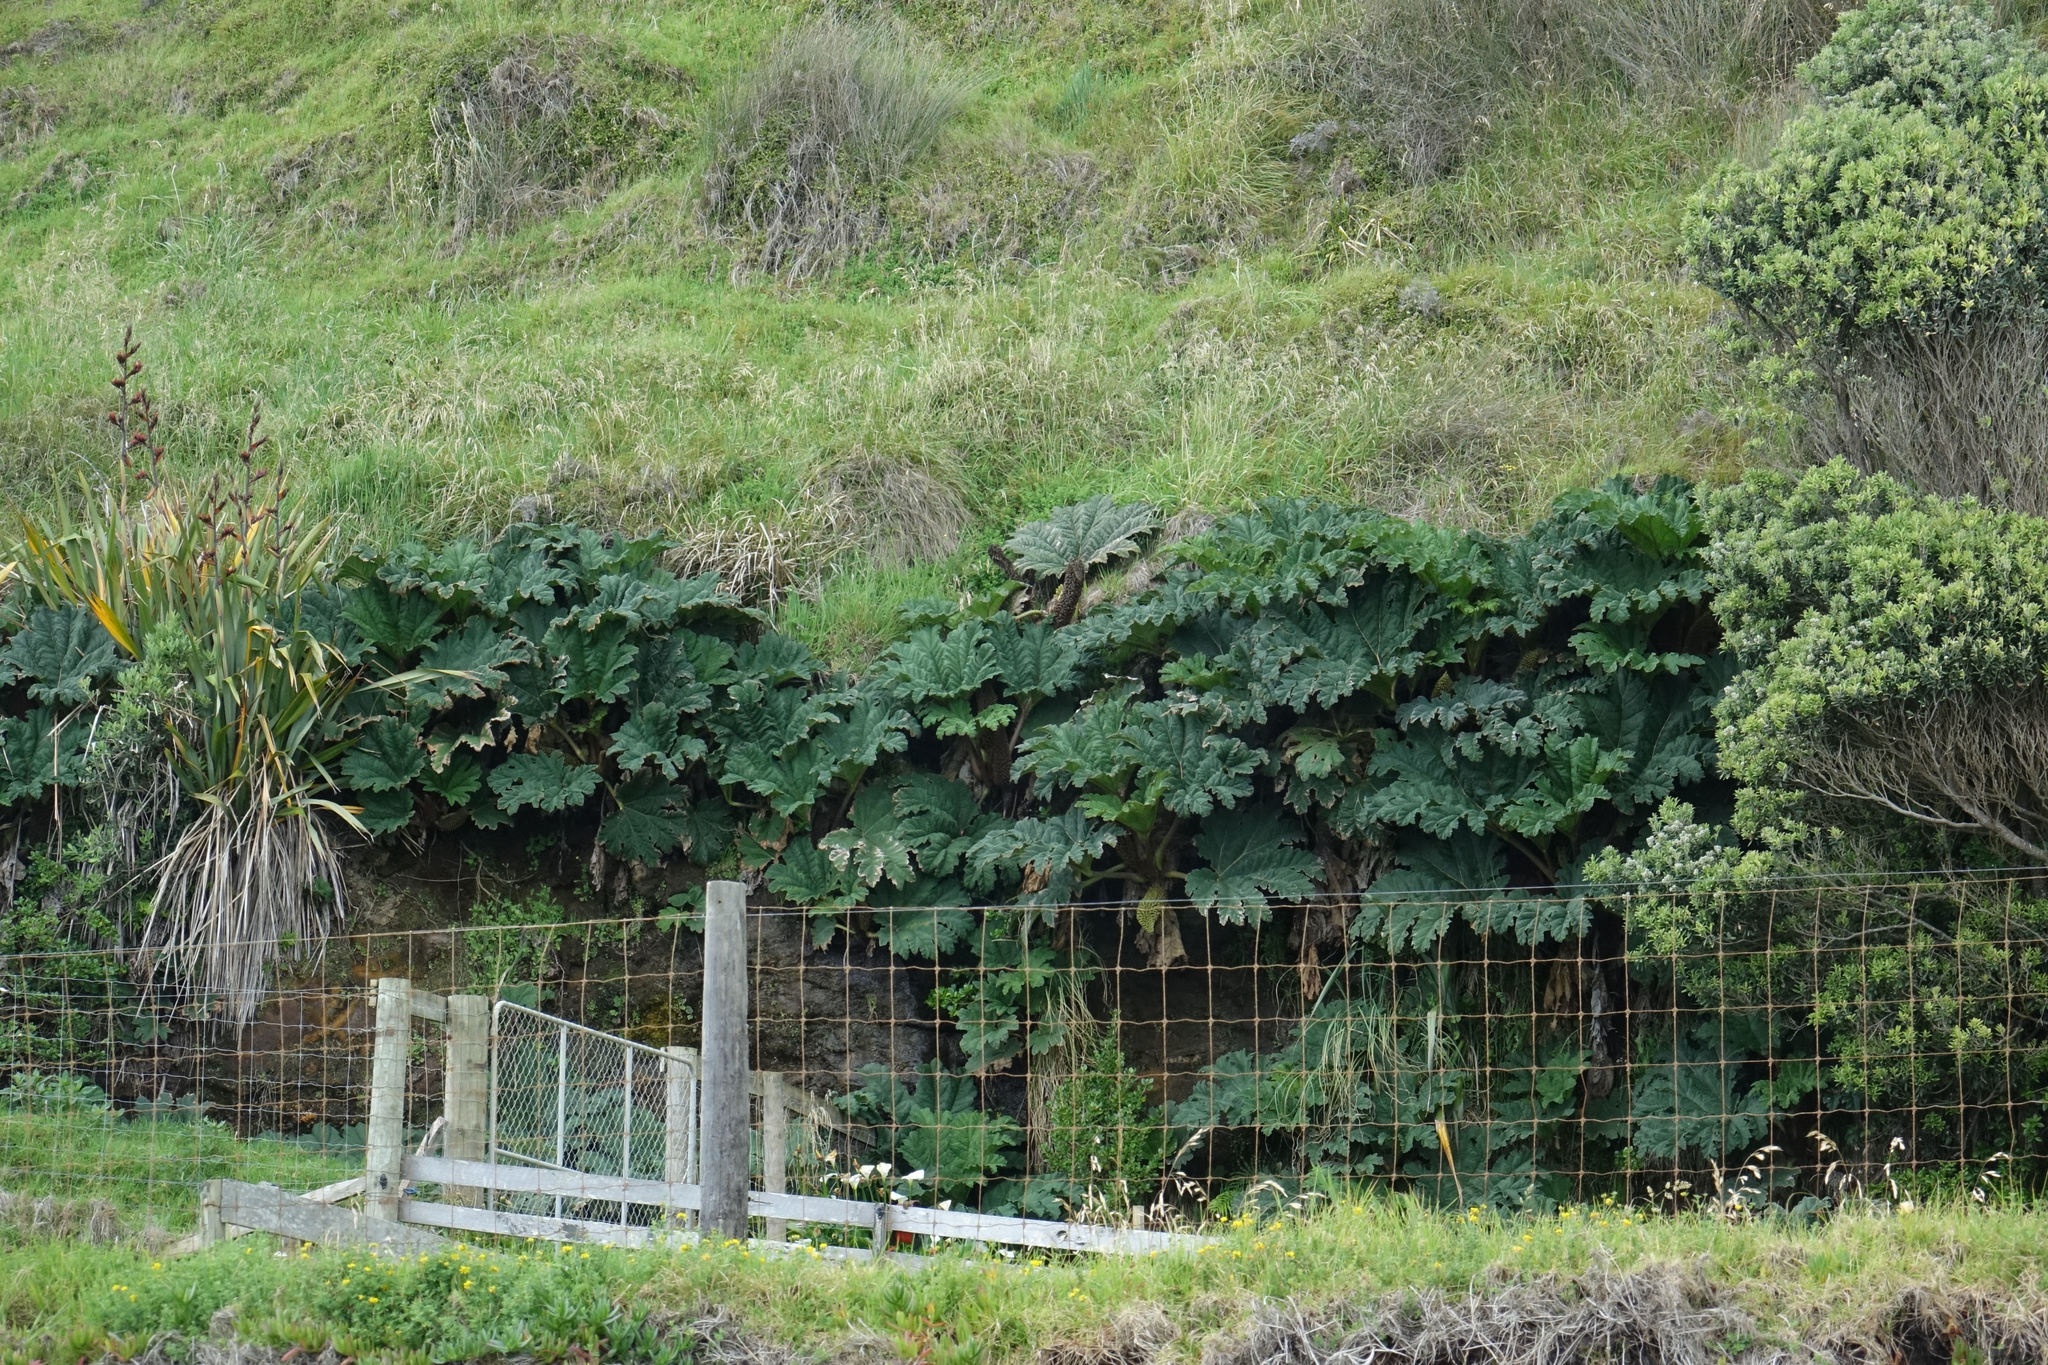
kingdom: Plantae
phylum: Tracheophyta
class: Magnoliopsida
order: Gunnerales
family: Gunneraceae
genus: Gunnera
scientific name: Gunnera tinctoria
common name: Giant-rhubarb
